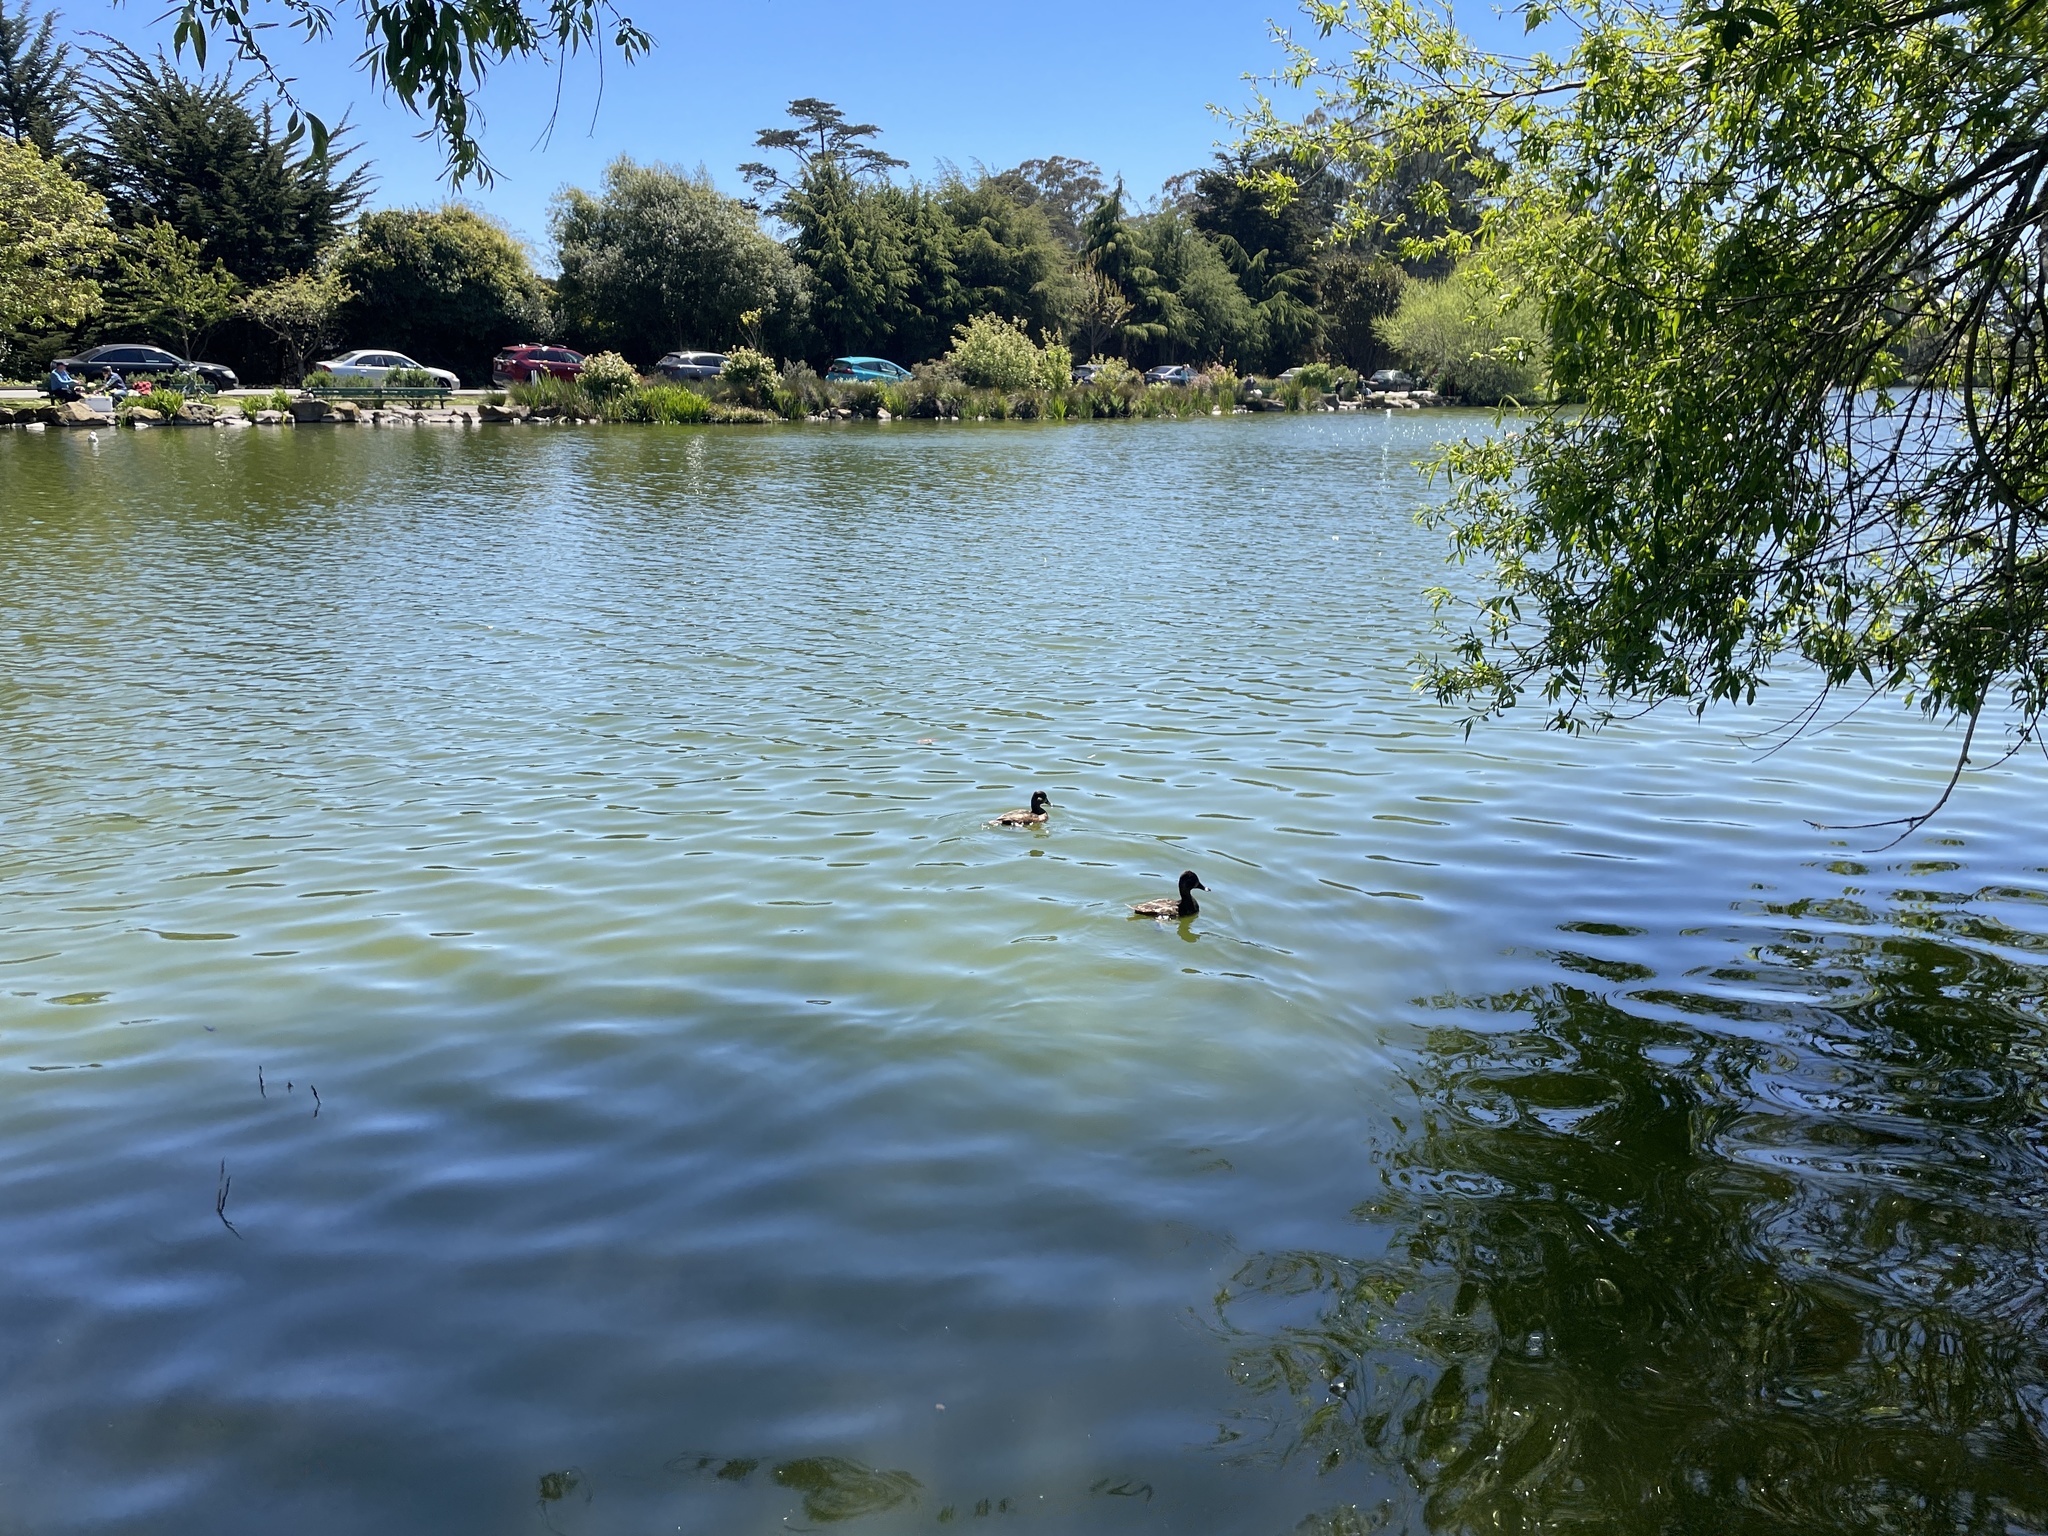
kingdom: Animalia
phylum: Chordata
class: Aves
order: Anseriformes
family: Anatidae
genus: Aythya
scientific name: Aythya collaris
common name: Ring-necked duck
